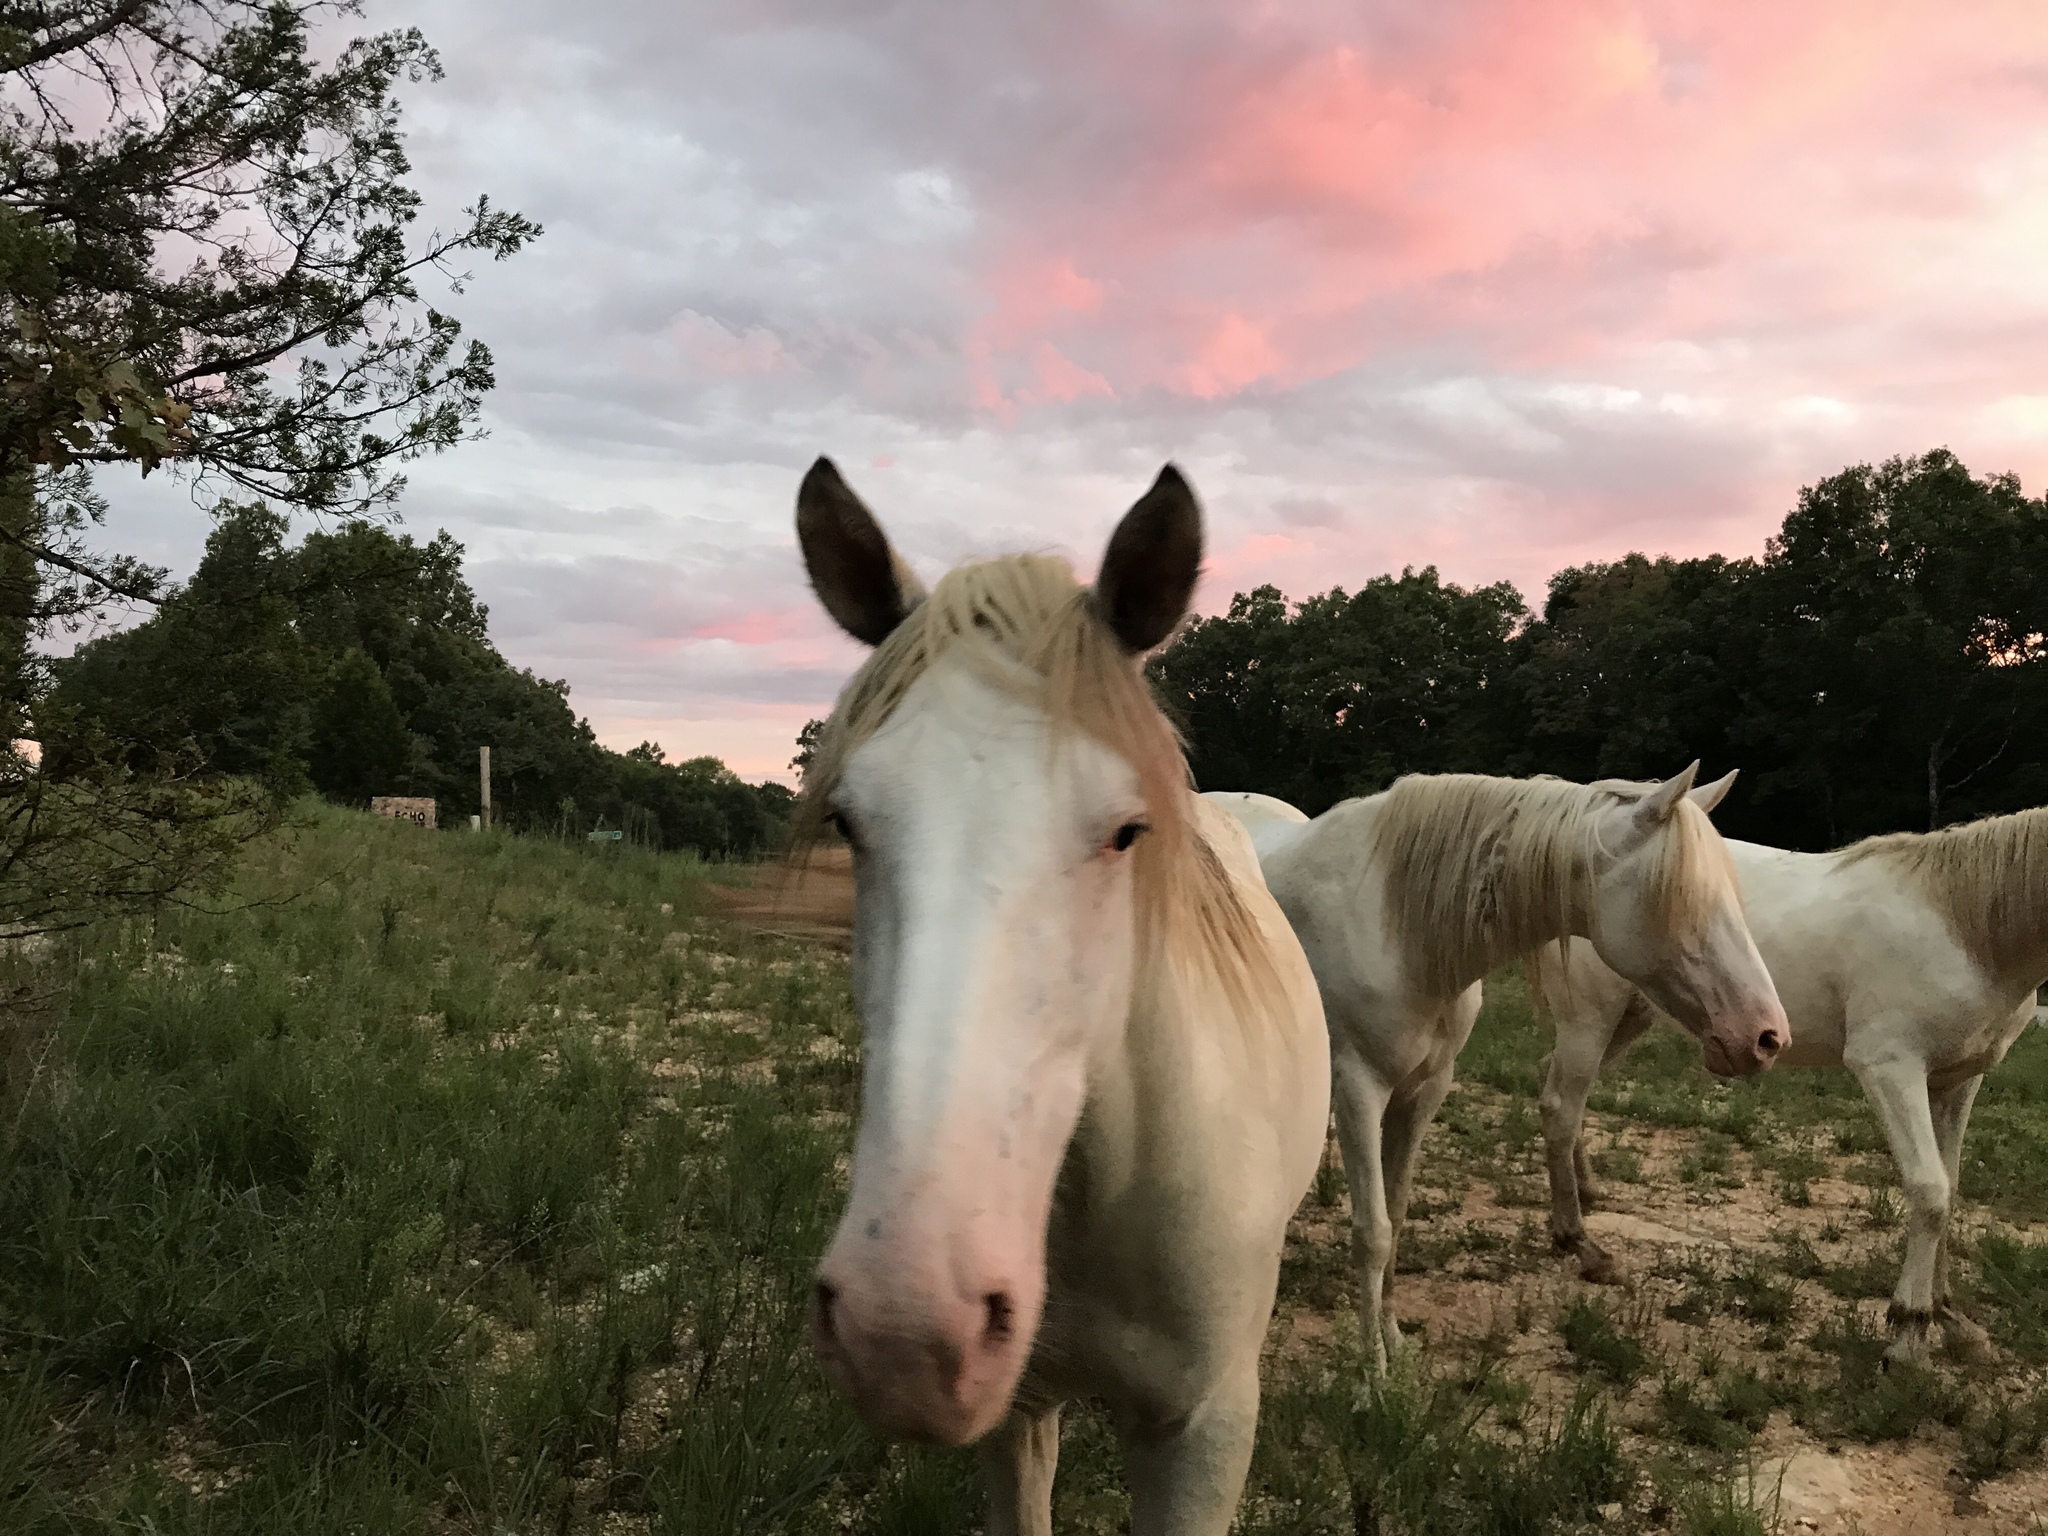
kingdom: Animalia
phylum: Chordata
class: Mammalia
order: Perissodactyla
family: Equidae
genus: Equus
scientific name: Equus caballus
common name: Horse
